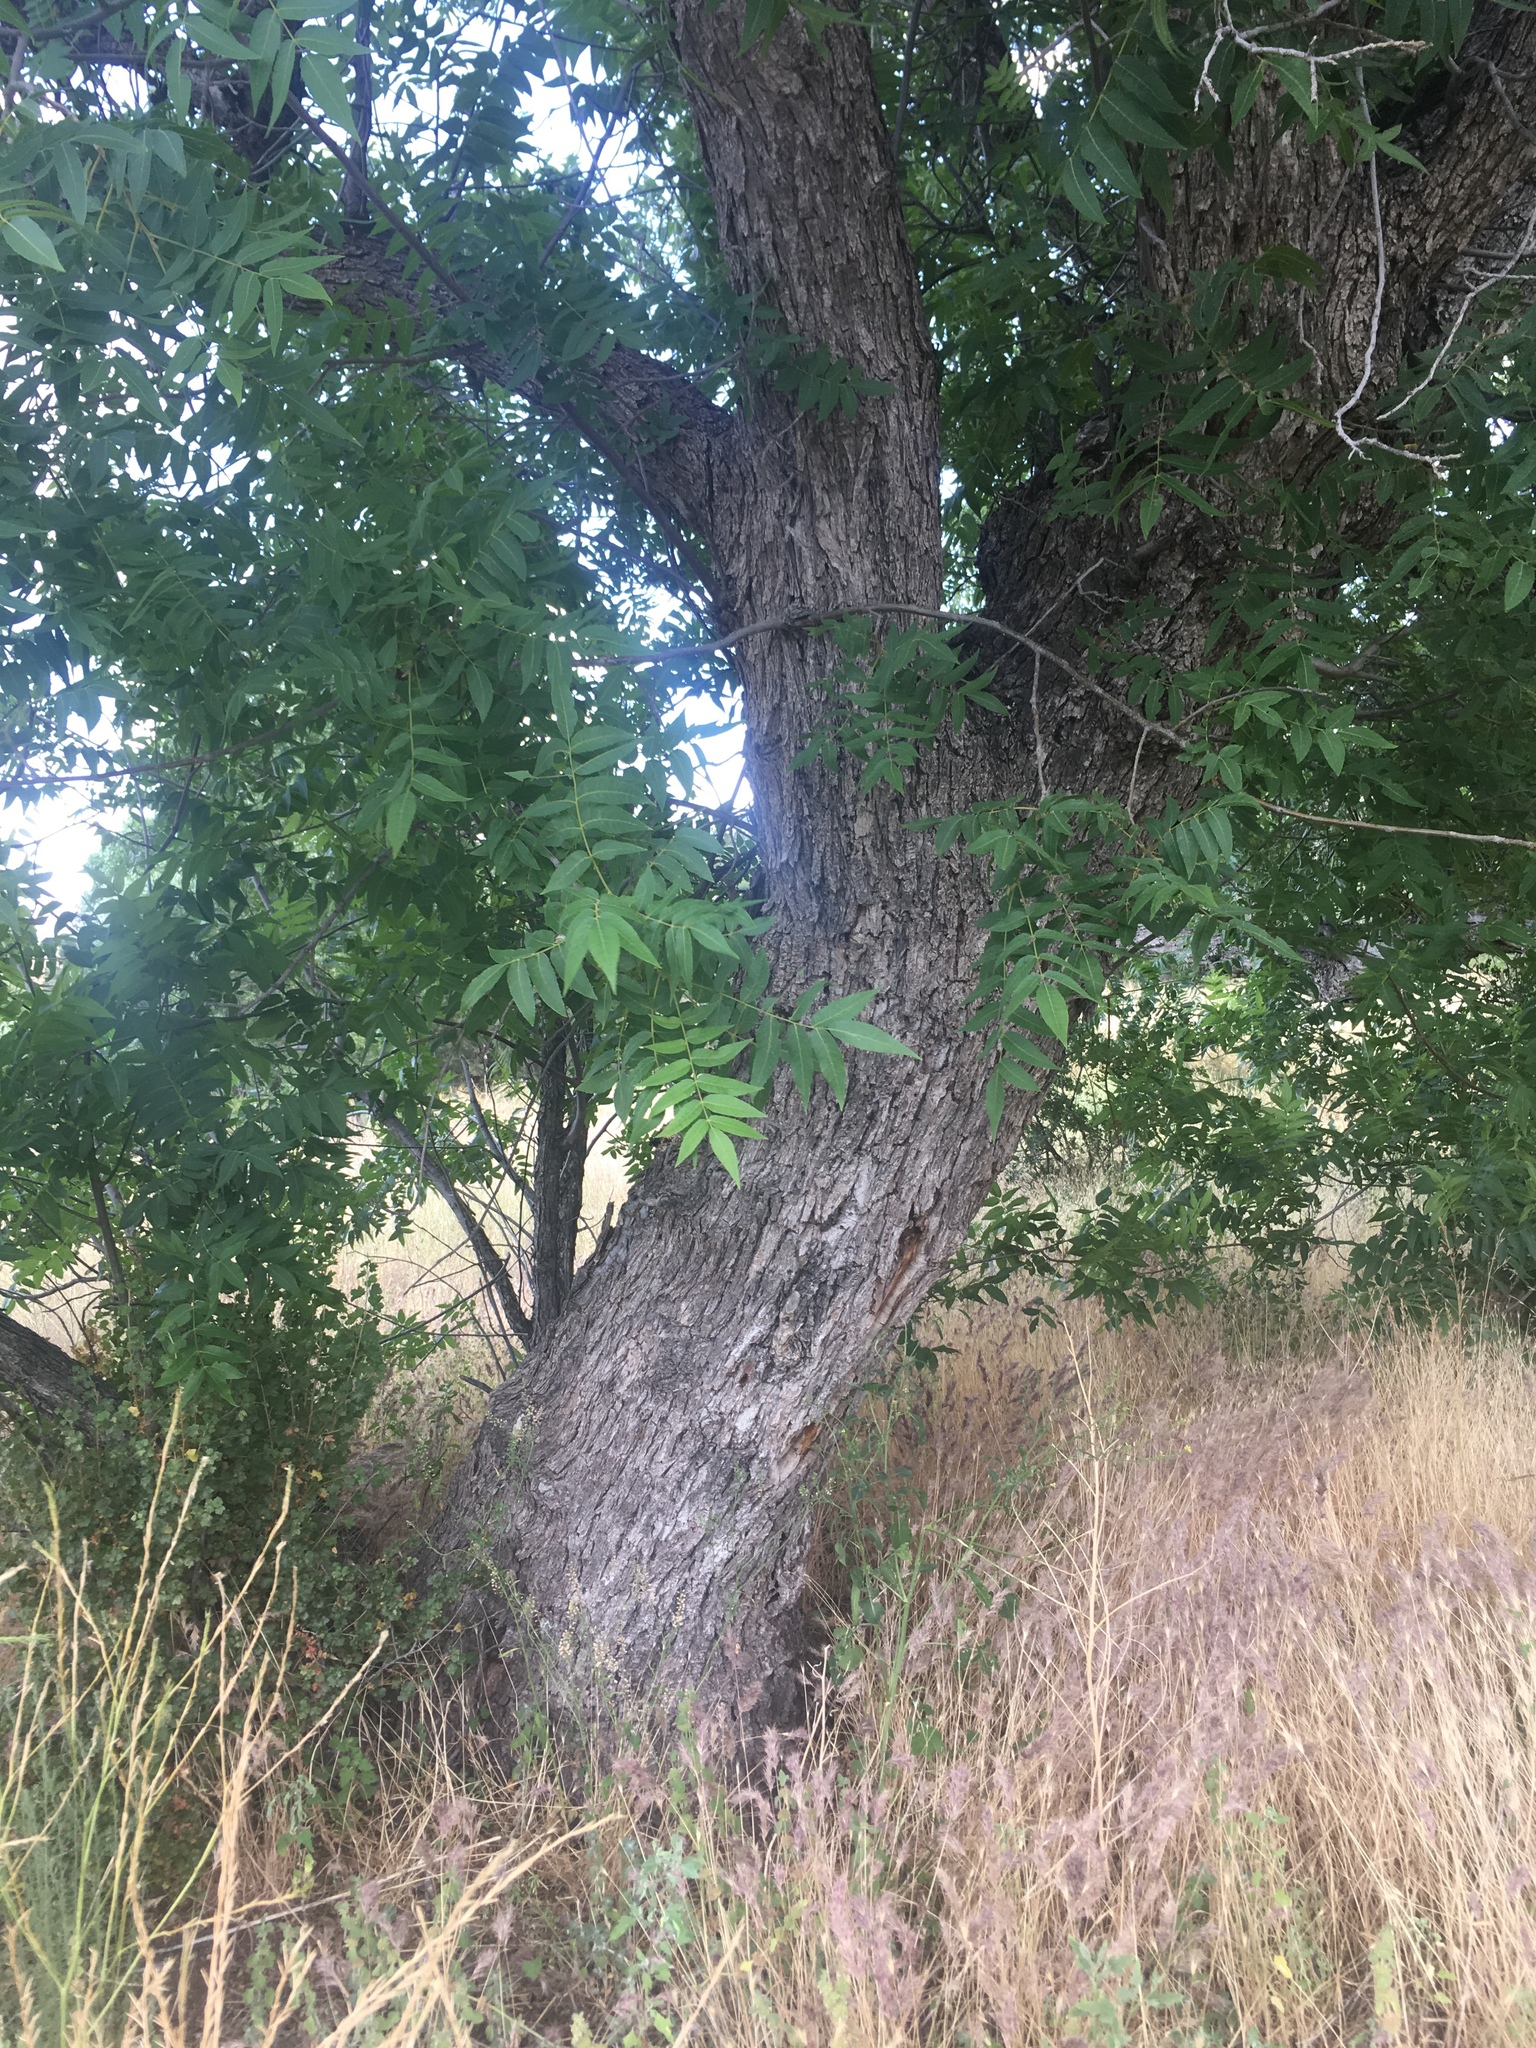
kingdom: Plantae
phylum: Tracheophyta
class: Magnoliopsida
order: Fagales
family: Juglandaceae
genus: Juglans
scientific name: Juglans major
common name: Arizona walnut
